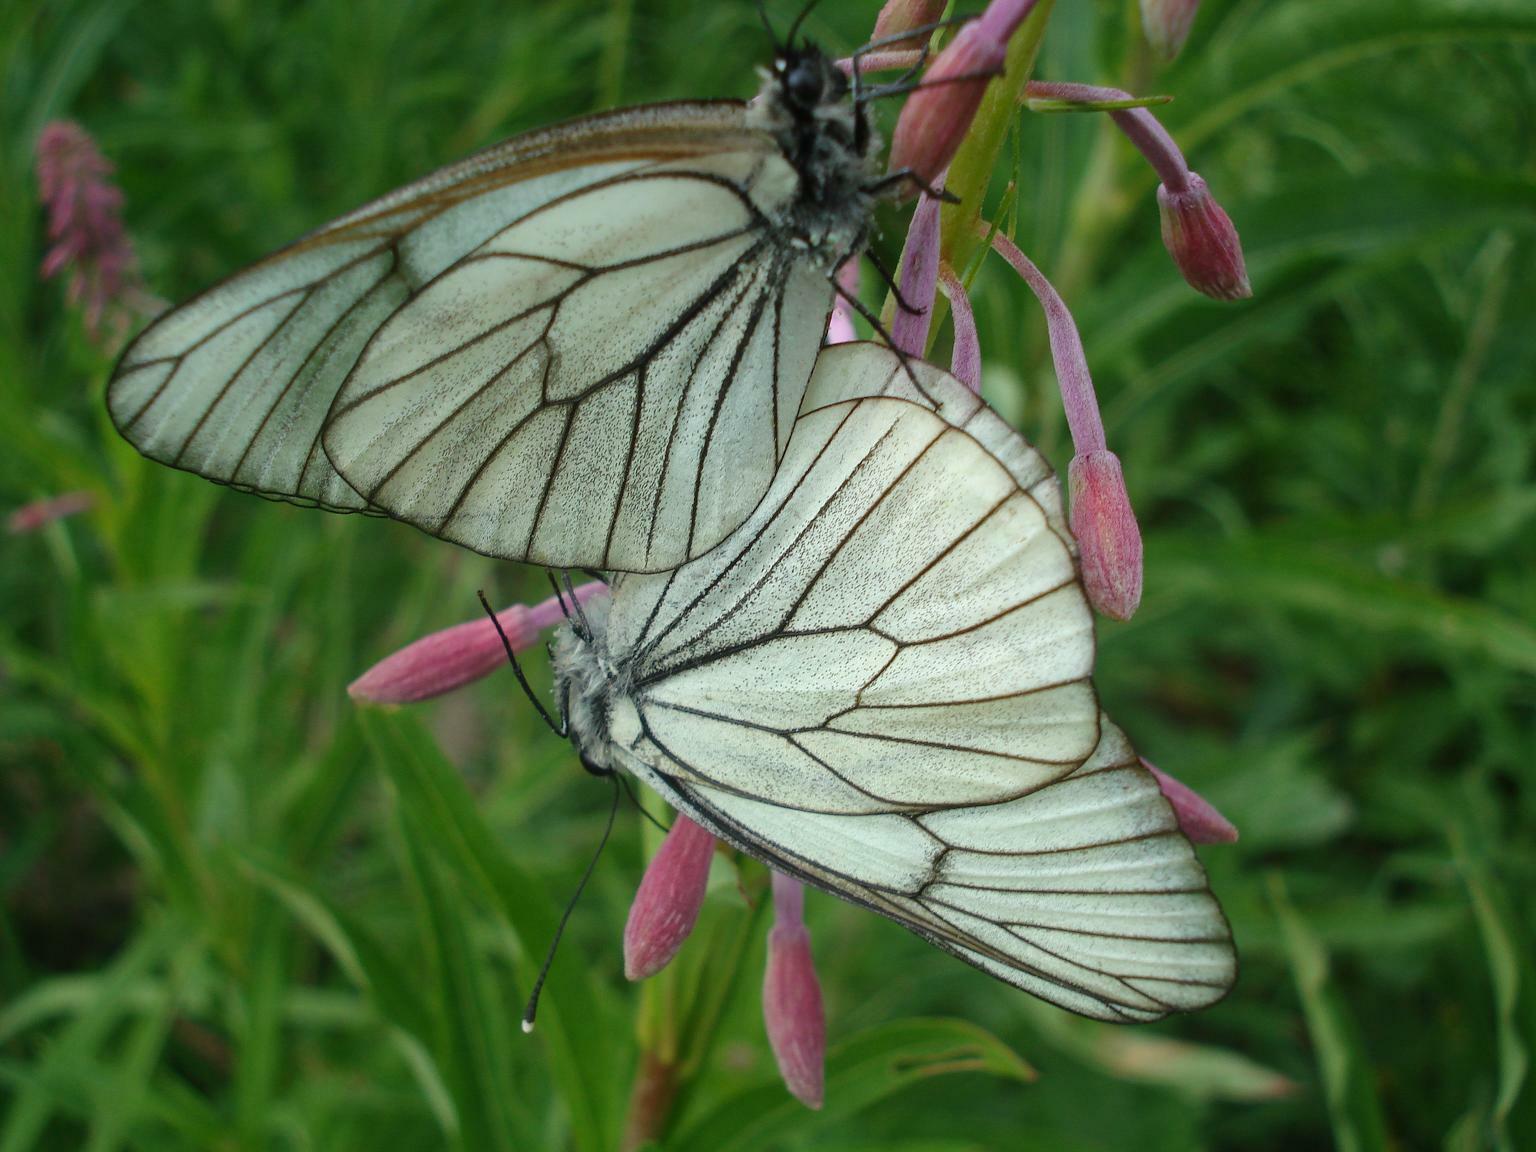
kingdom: Animalia
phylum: Arthropoda
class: Insecta
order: Lepidoptera
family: Pieridae
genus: Aporia
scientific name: Aporia crataegi
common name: Black-veined white
